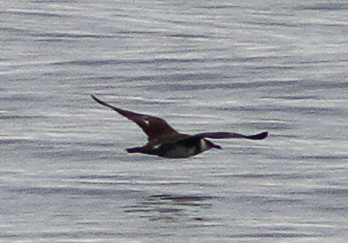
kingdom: Animalia
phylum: Chordata
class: Aves
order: Charadriiformes
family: Stercorariidae
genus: Stercorarius
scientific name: Stercorarius pomarinus
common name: Pomarine jaeger
